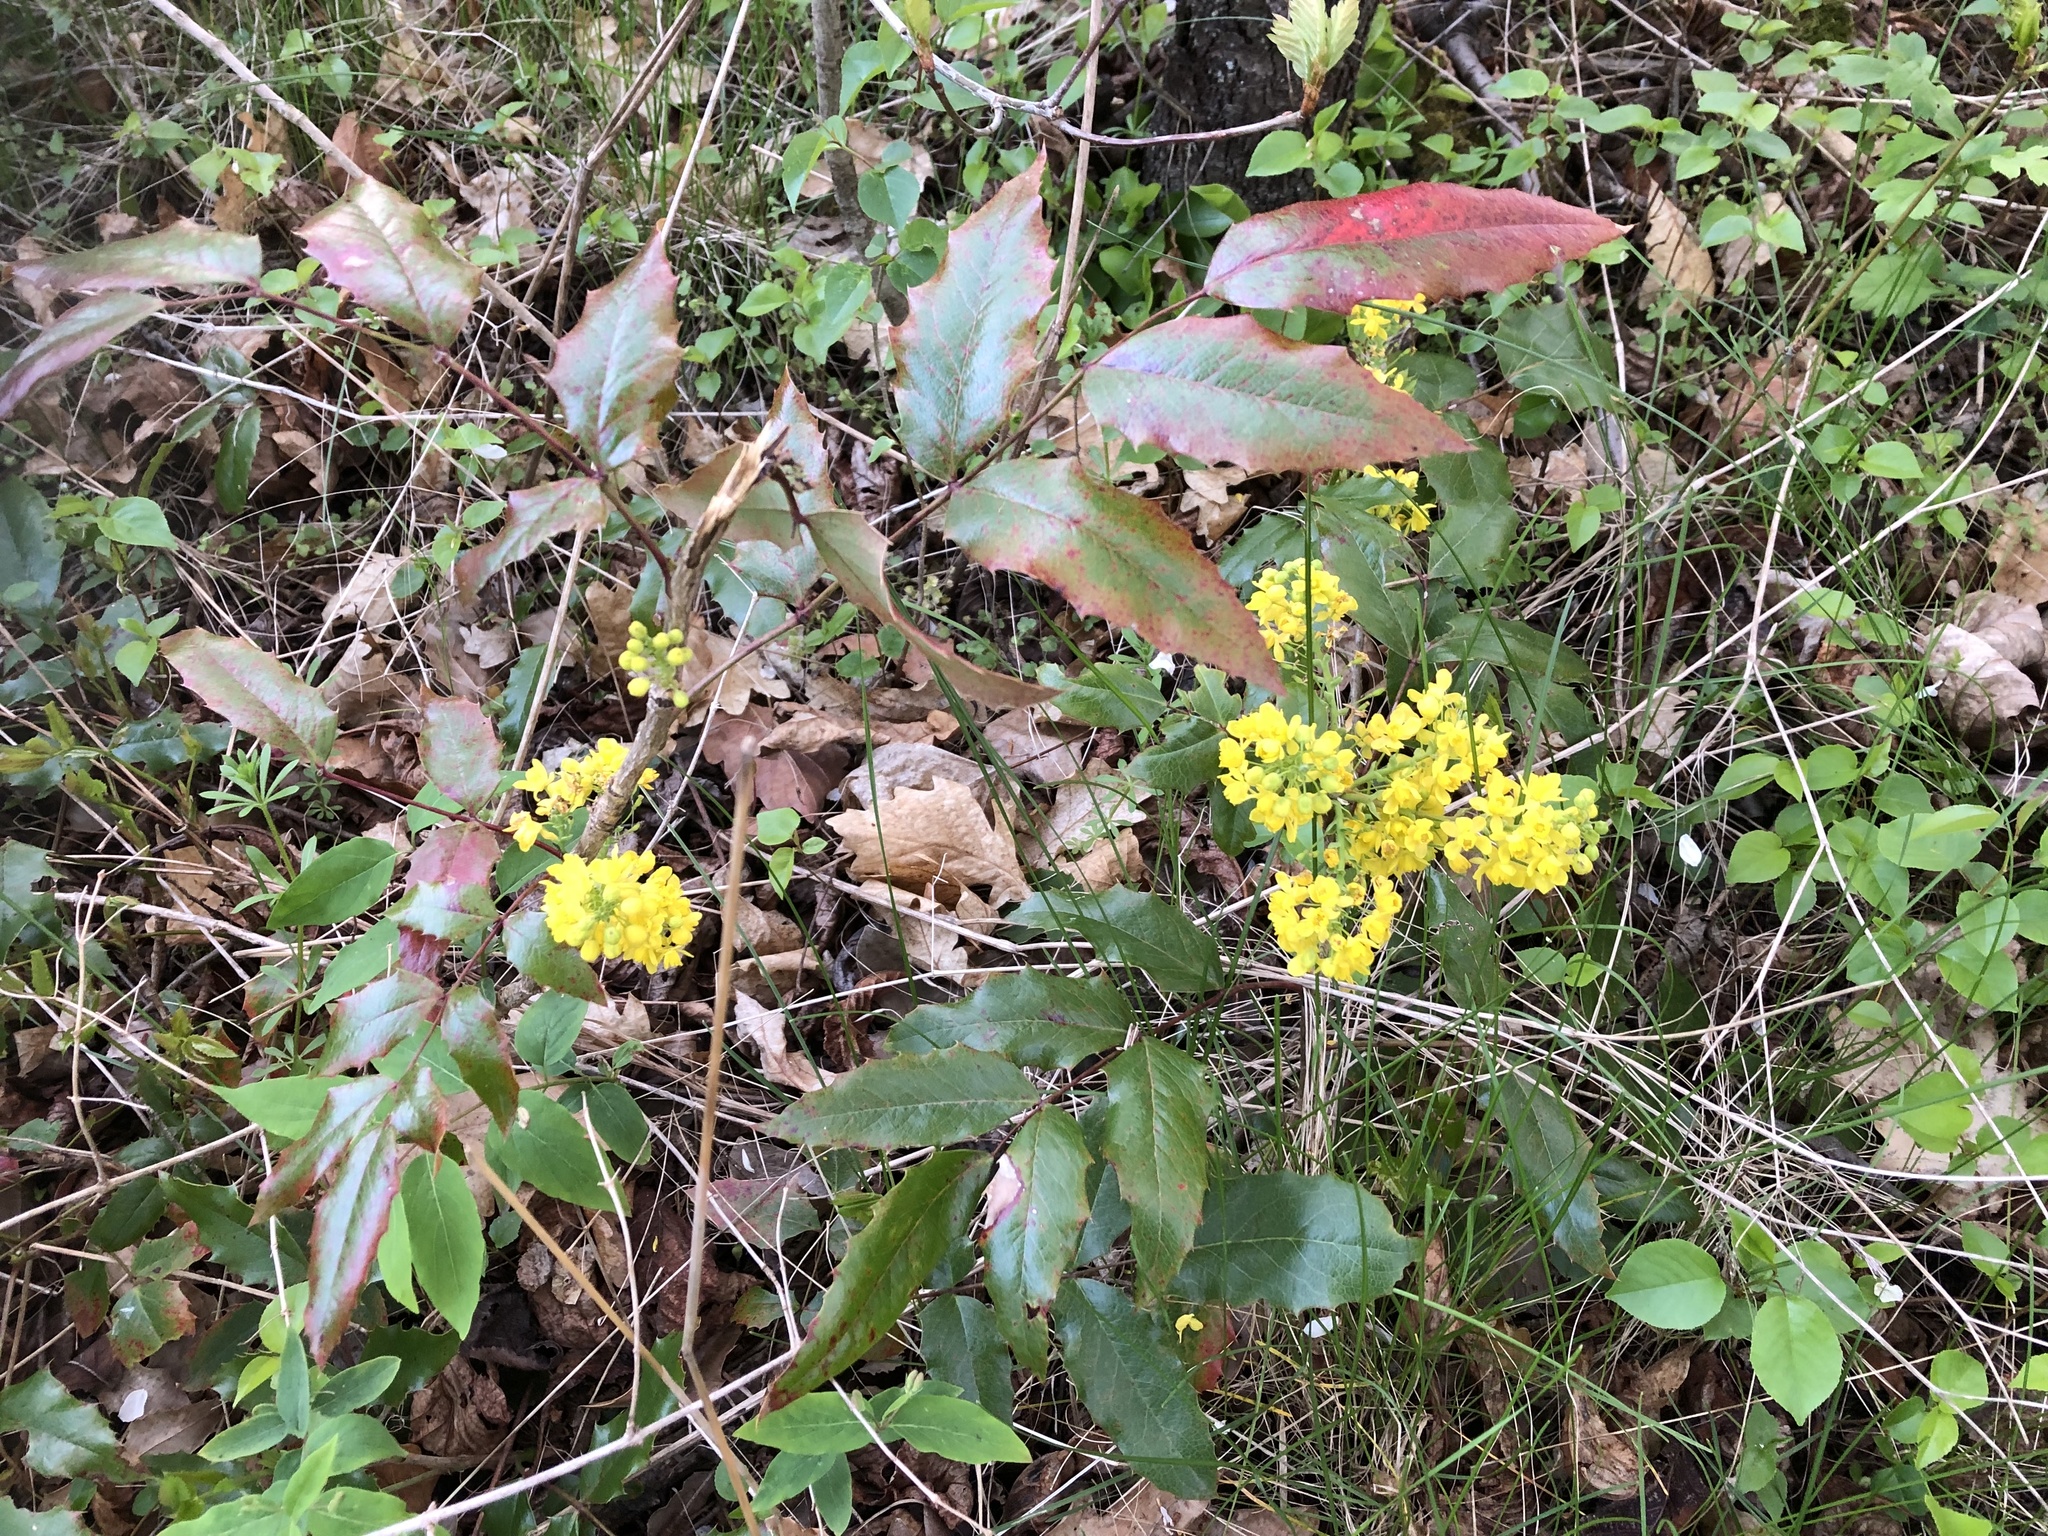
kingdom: Plantae
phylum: Tracheophyta
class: Magnoliopsida
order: Ranunculales
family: Berberidaceae
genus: Mahonia
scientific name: Mahonia aquifolium
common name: Oregon-grape
